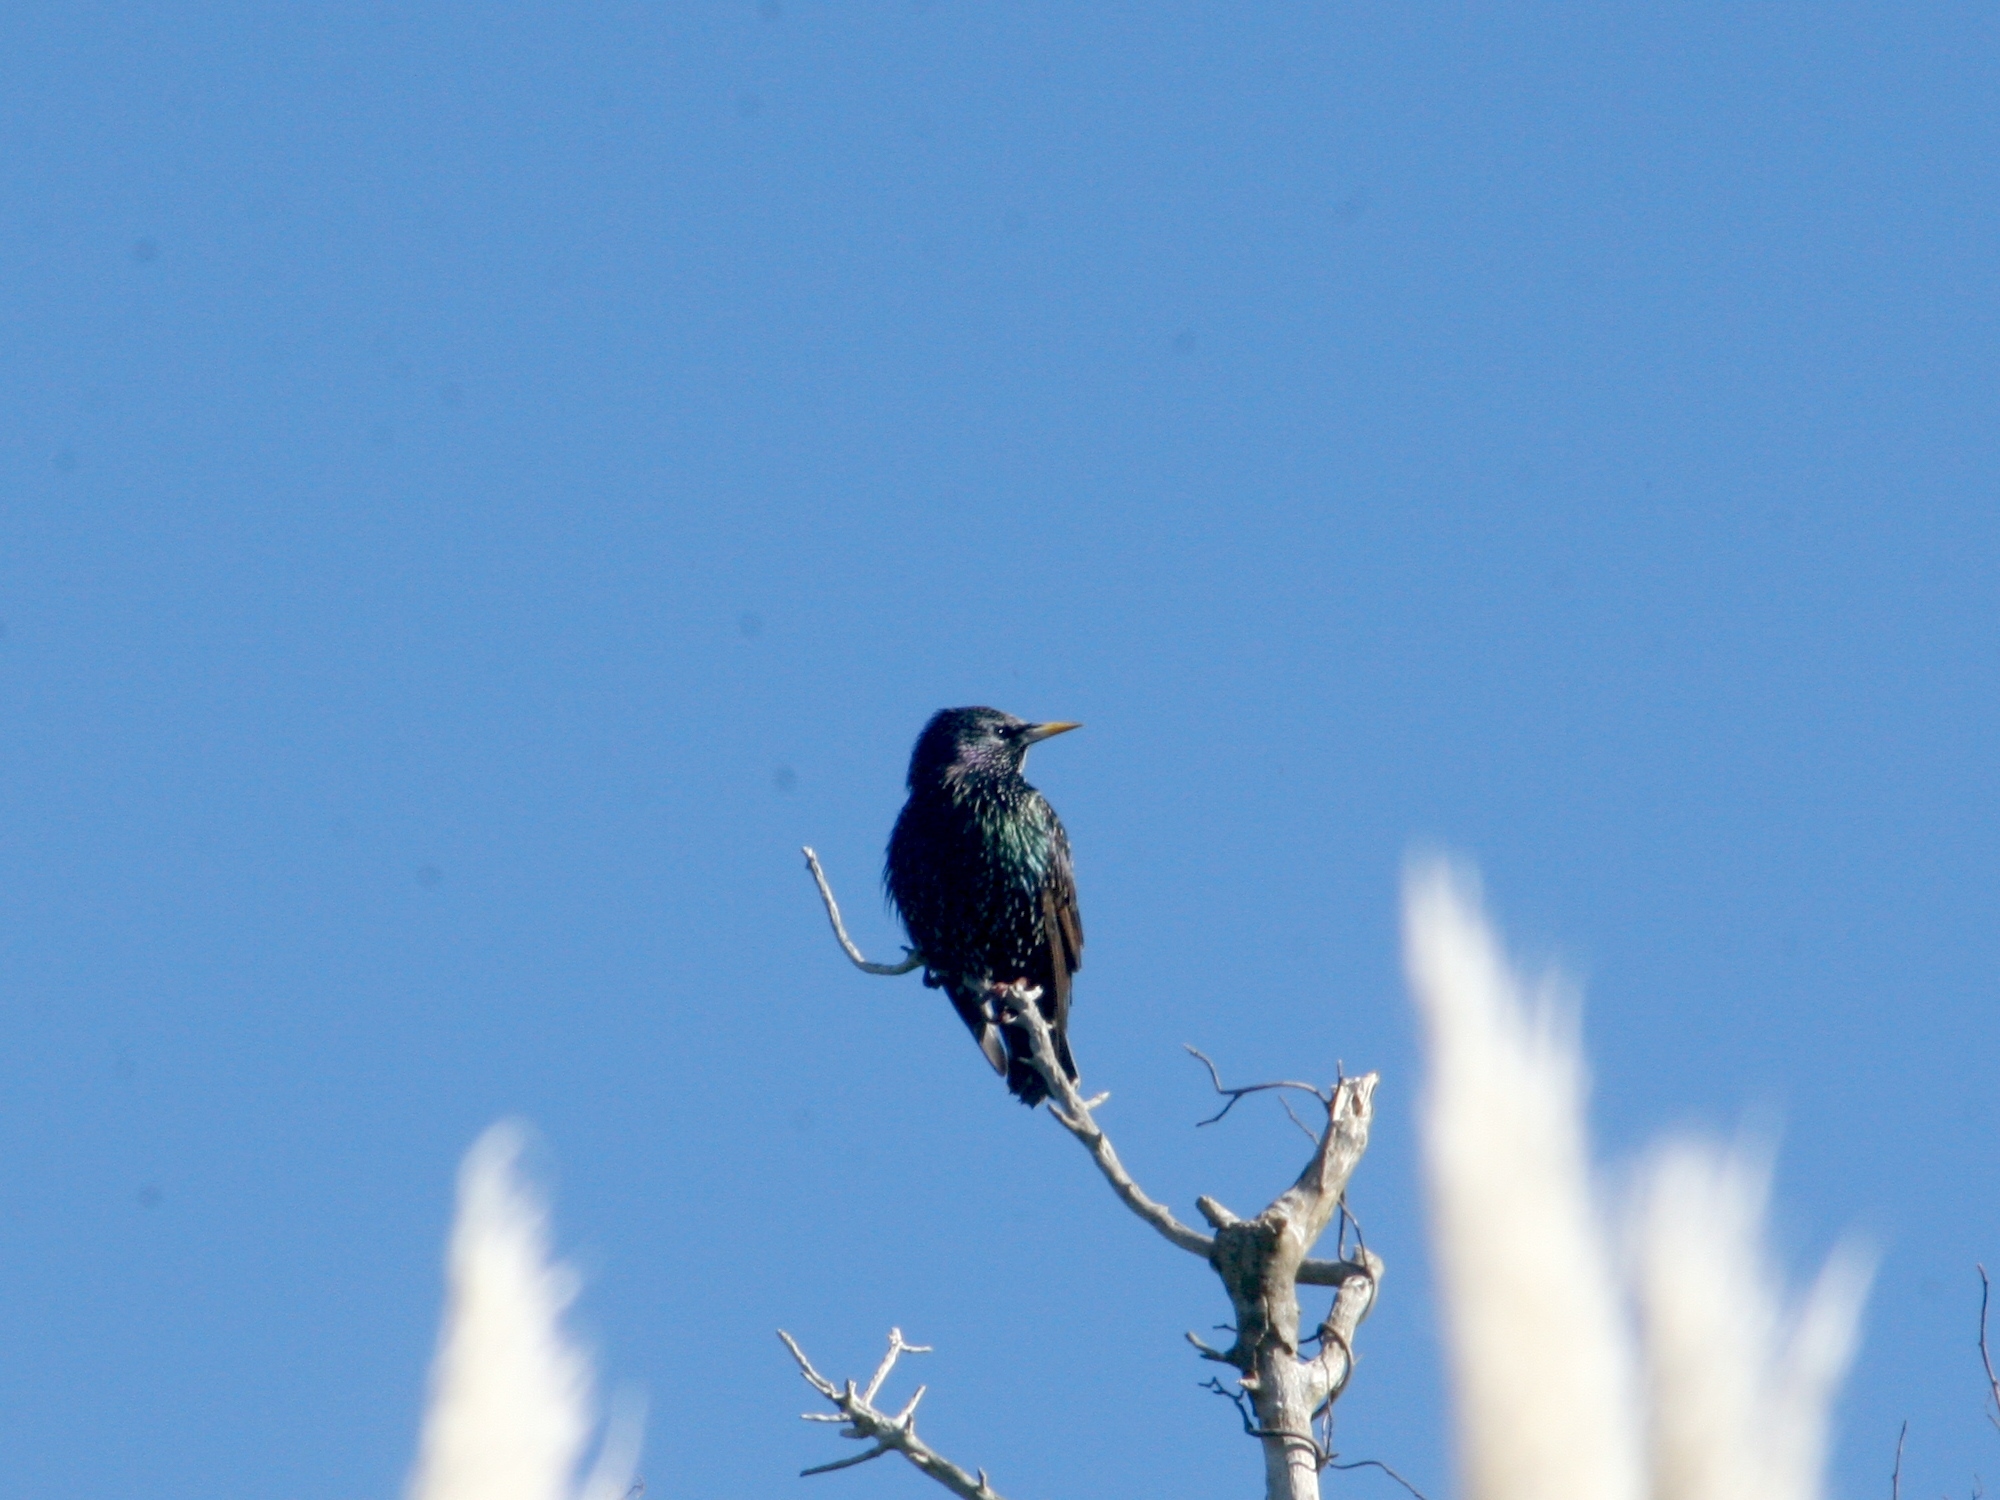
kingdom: Animalia
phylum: Chordata
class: Aves
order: Passeriformes
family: Sturnidae
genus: Sturnus
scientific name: Sturnus vulgaris
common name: Common starling
